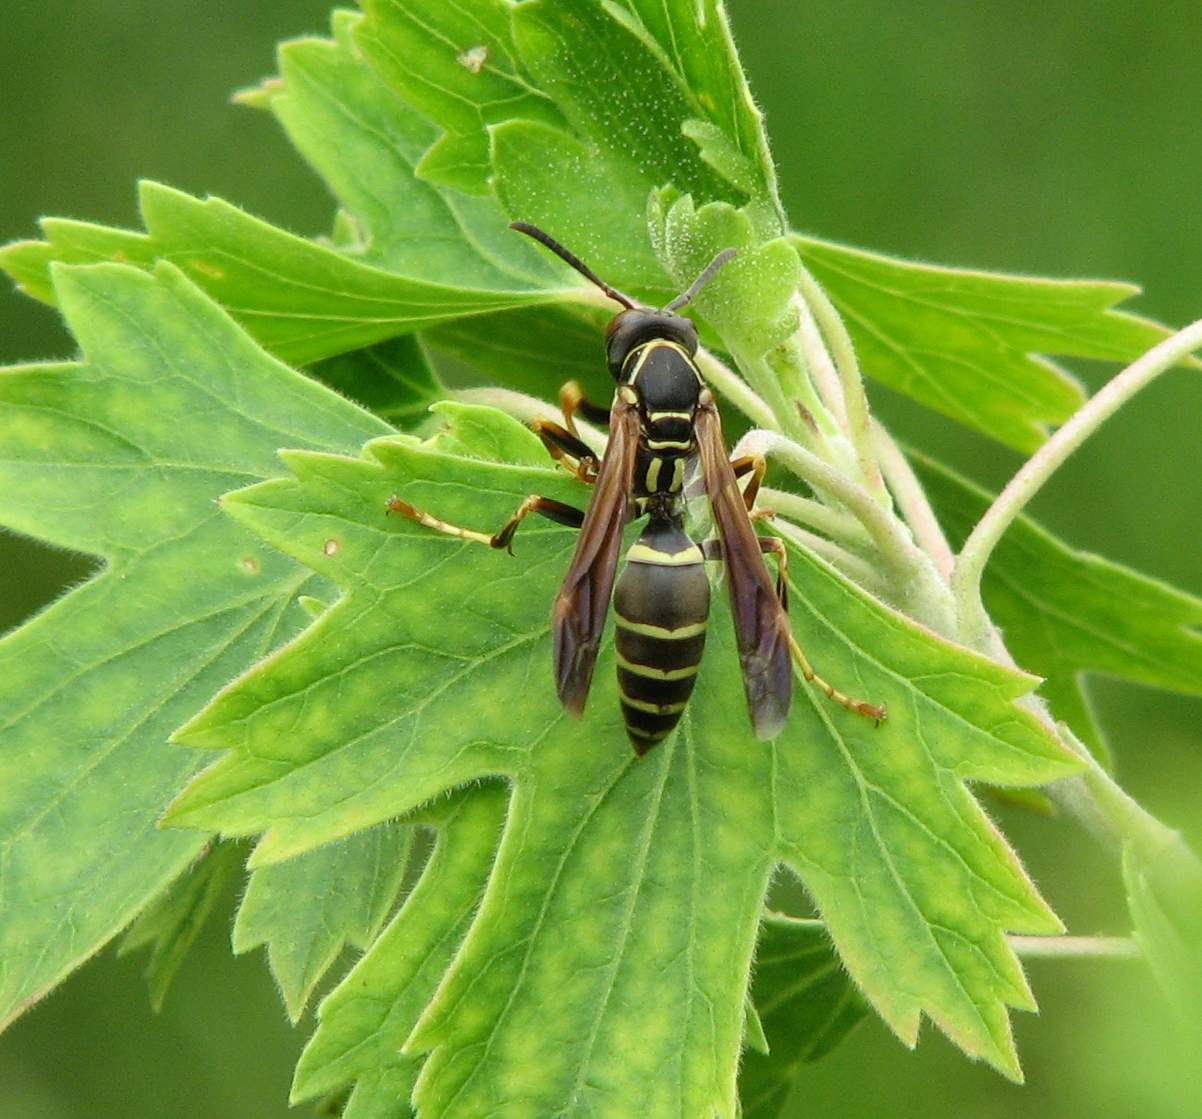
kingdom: Animalia
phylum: Arthropoda
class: Insecta
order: Hymenoptera
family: Eumenidae
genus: Polistes
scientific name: Polistes fuscatus
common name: Dark paper wasp
